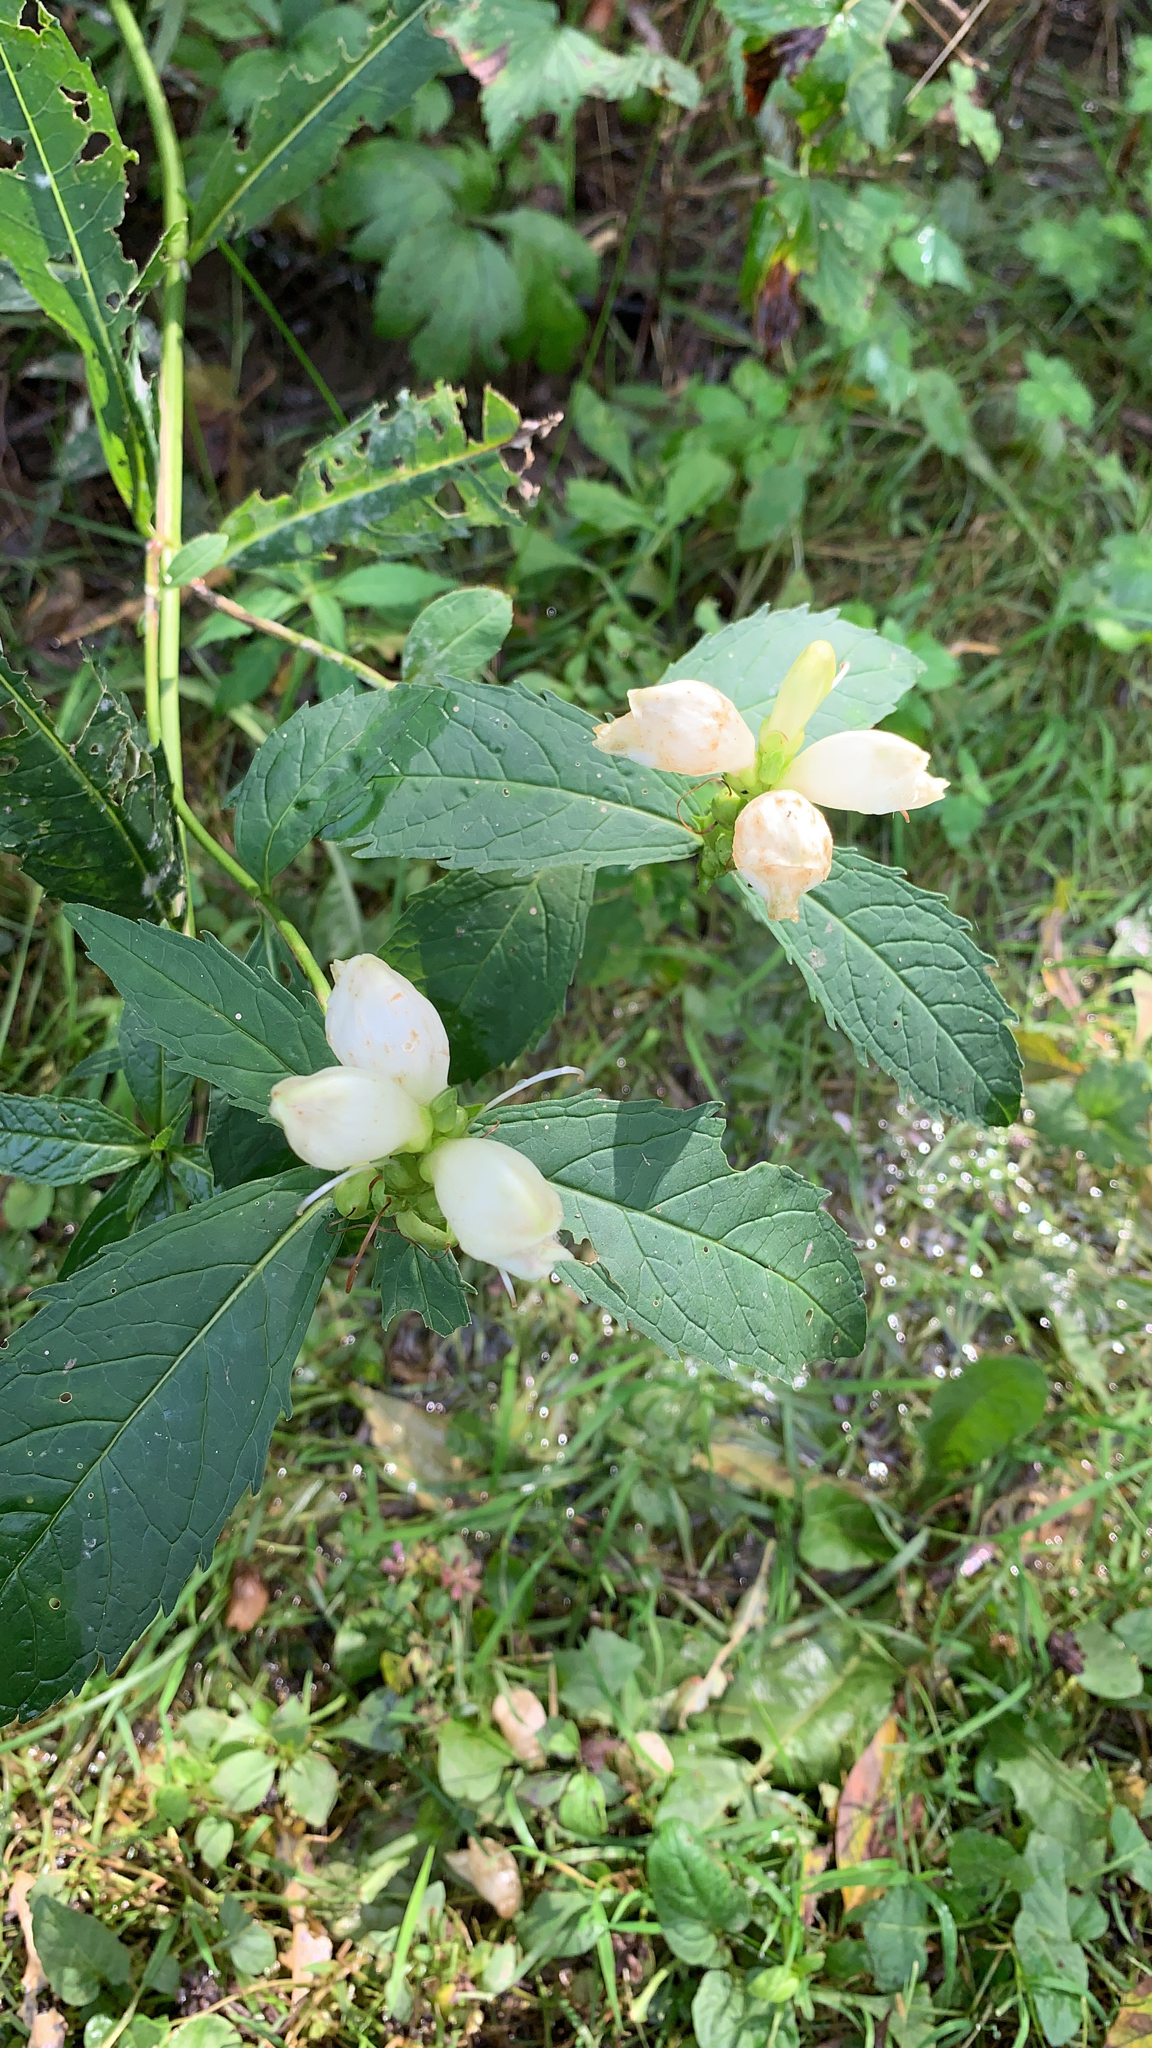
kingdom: Plantae
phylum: Tracheophyta
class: Magnoliopsida
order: Lamiales
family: Plantaginaceae
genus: Chelone
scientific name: Chelone glabra
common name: Snakehead
